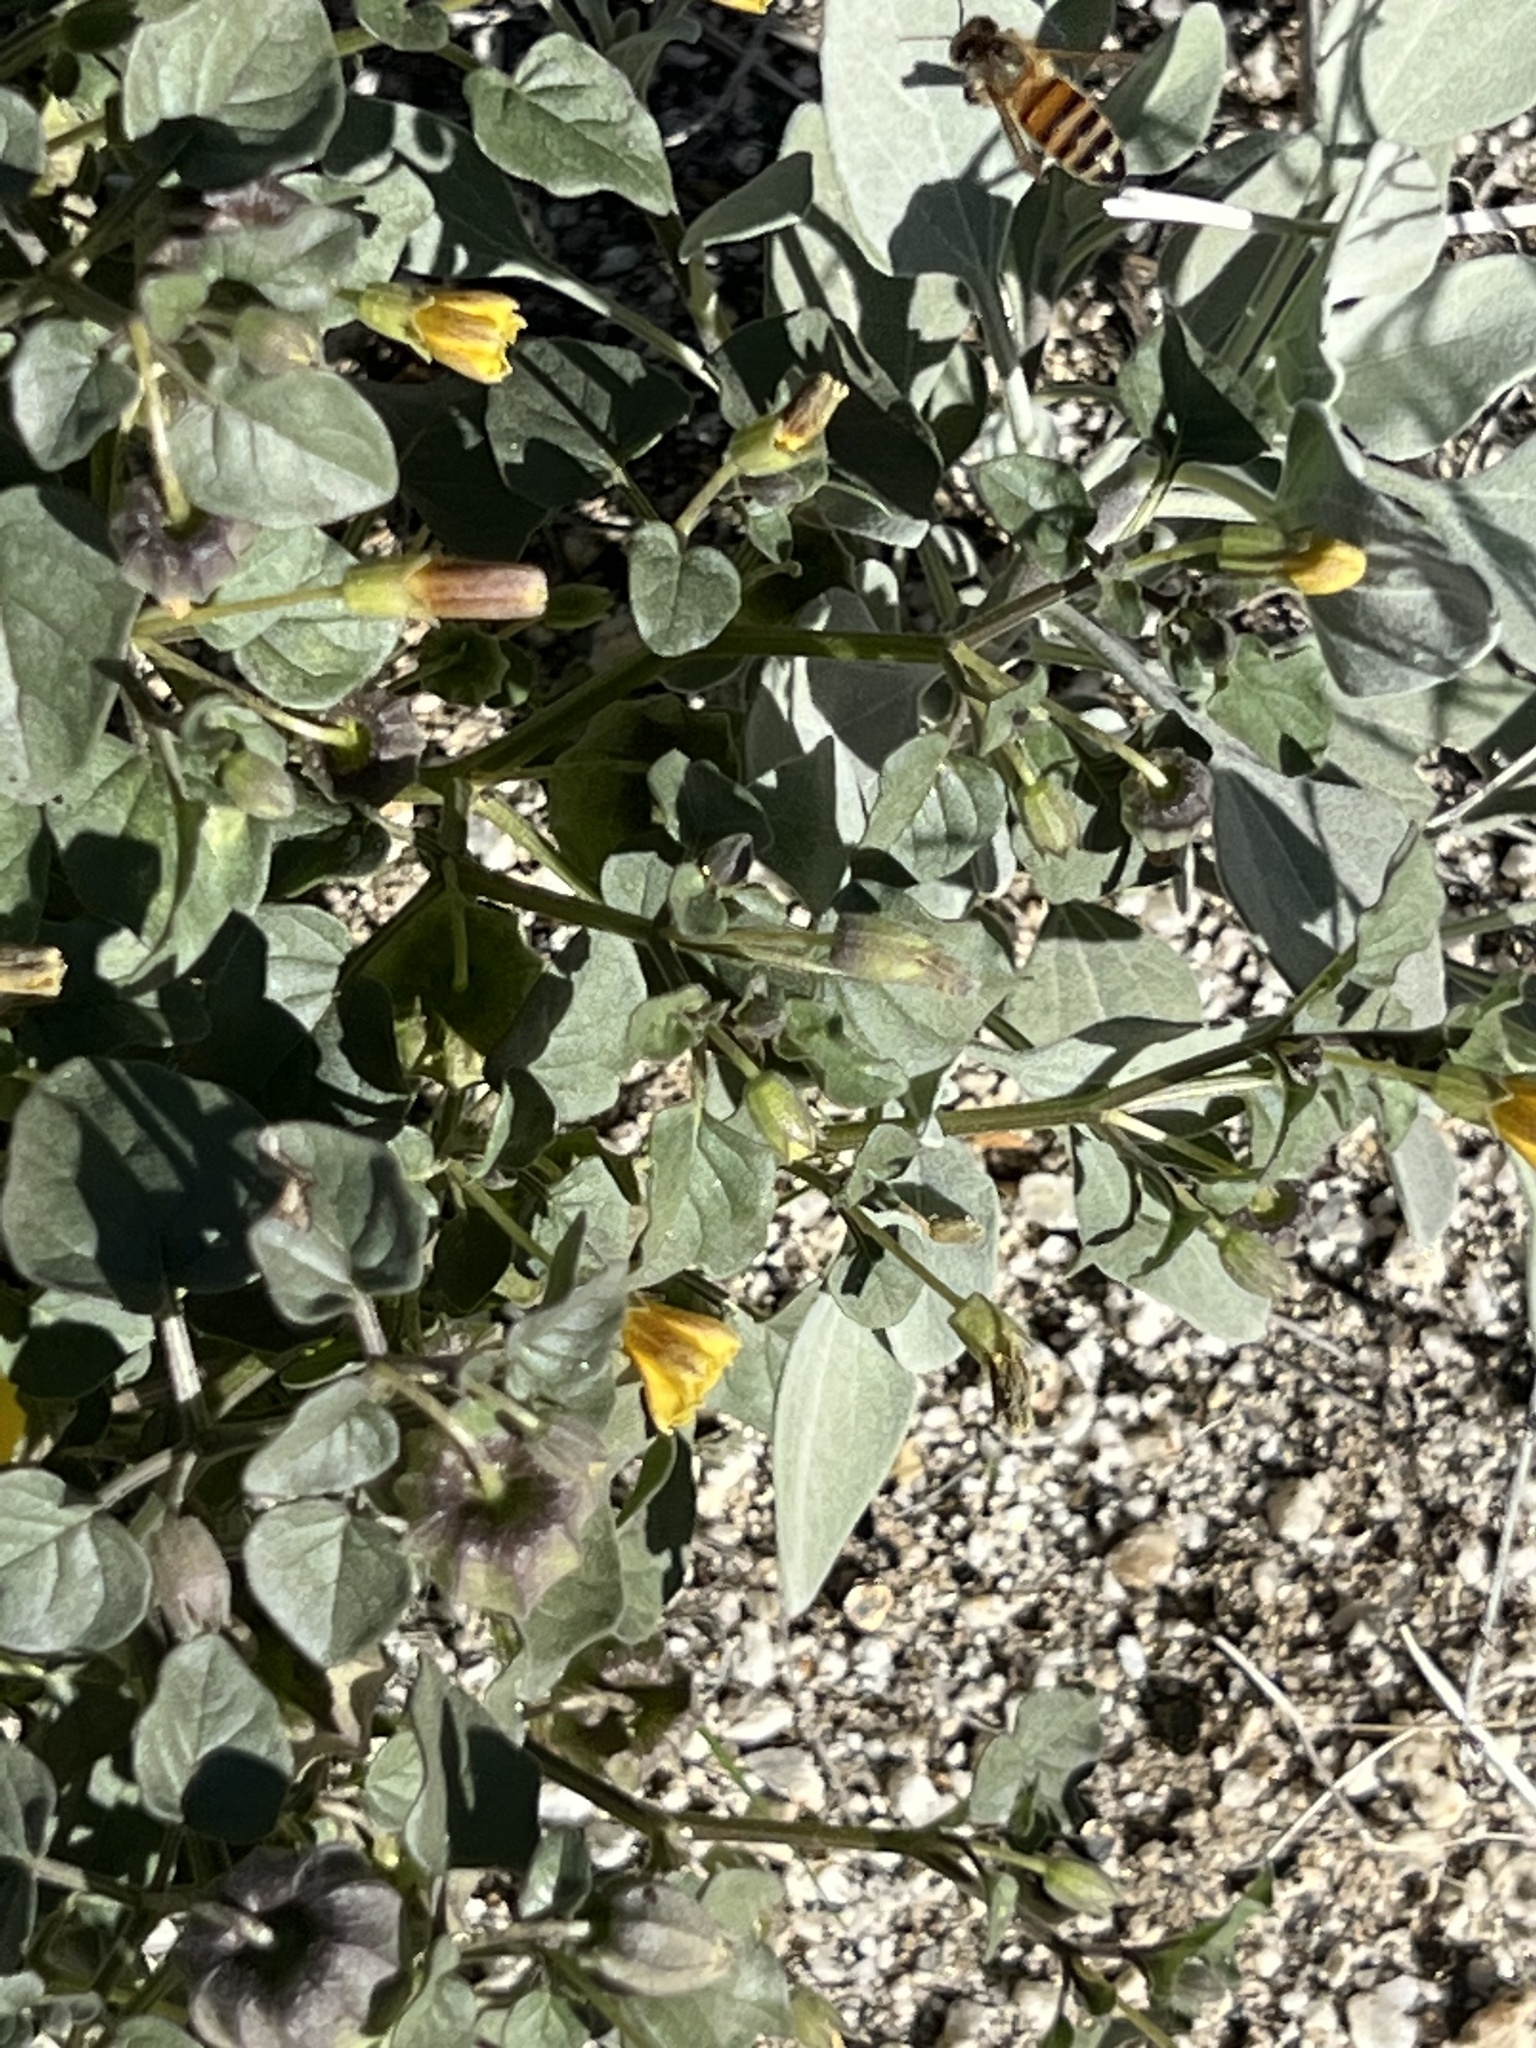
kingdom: Plantae
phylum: Tracheophyta
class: Magnoliopsida
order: Solanales
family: Solanaceae
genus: Physalis
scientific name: Physalis crassifolia
